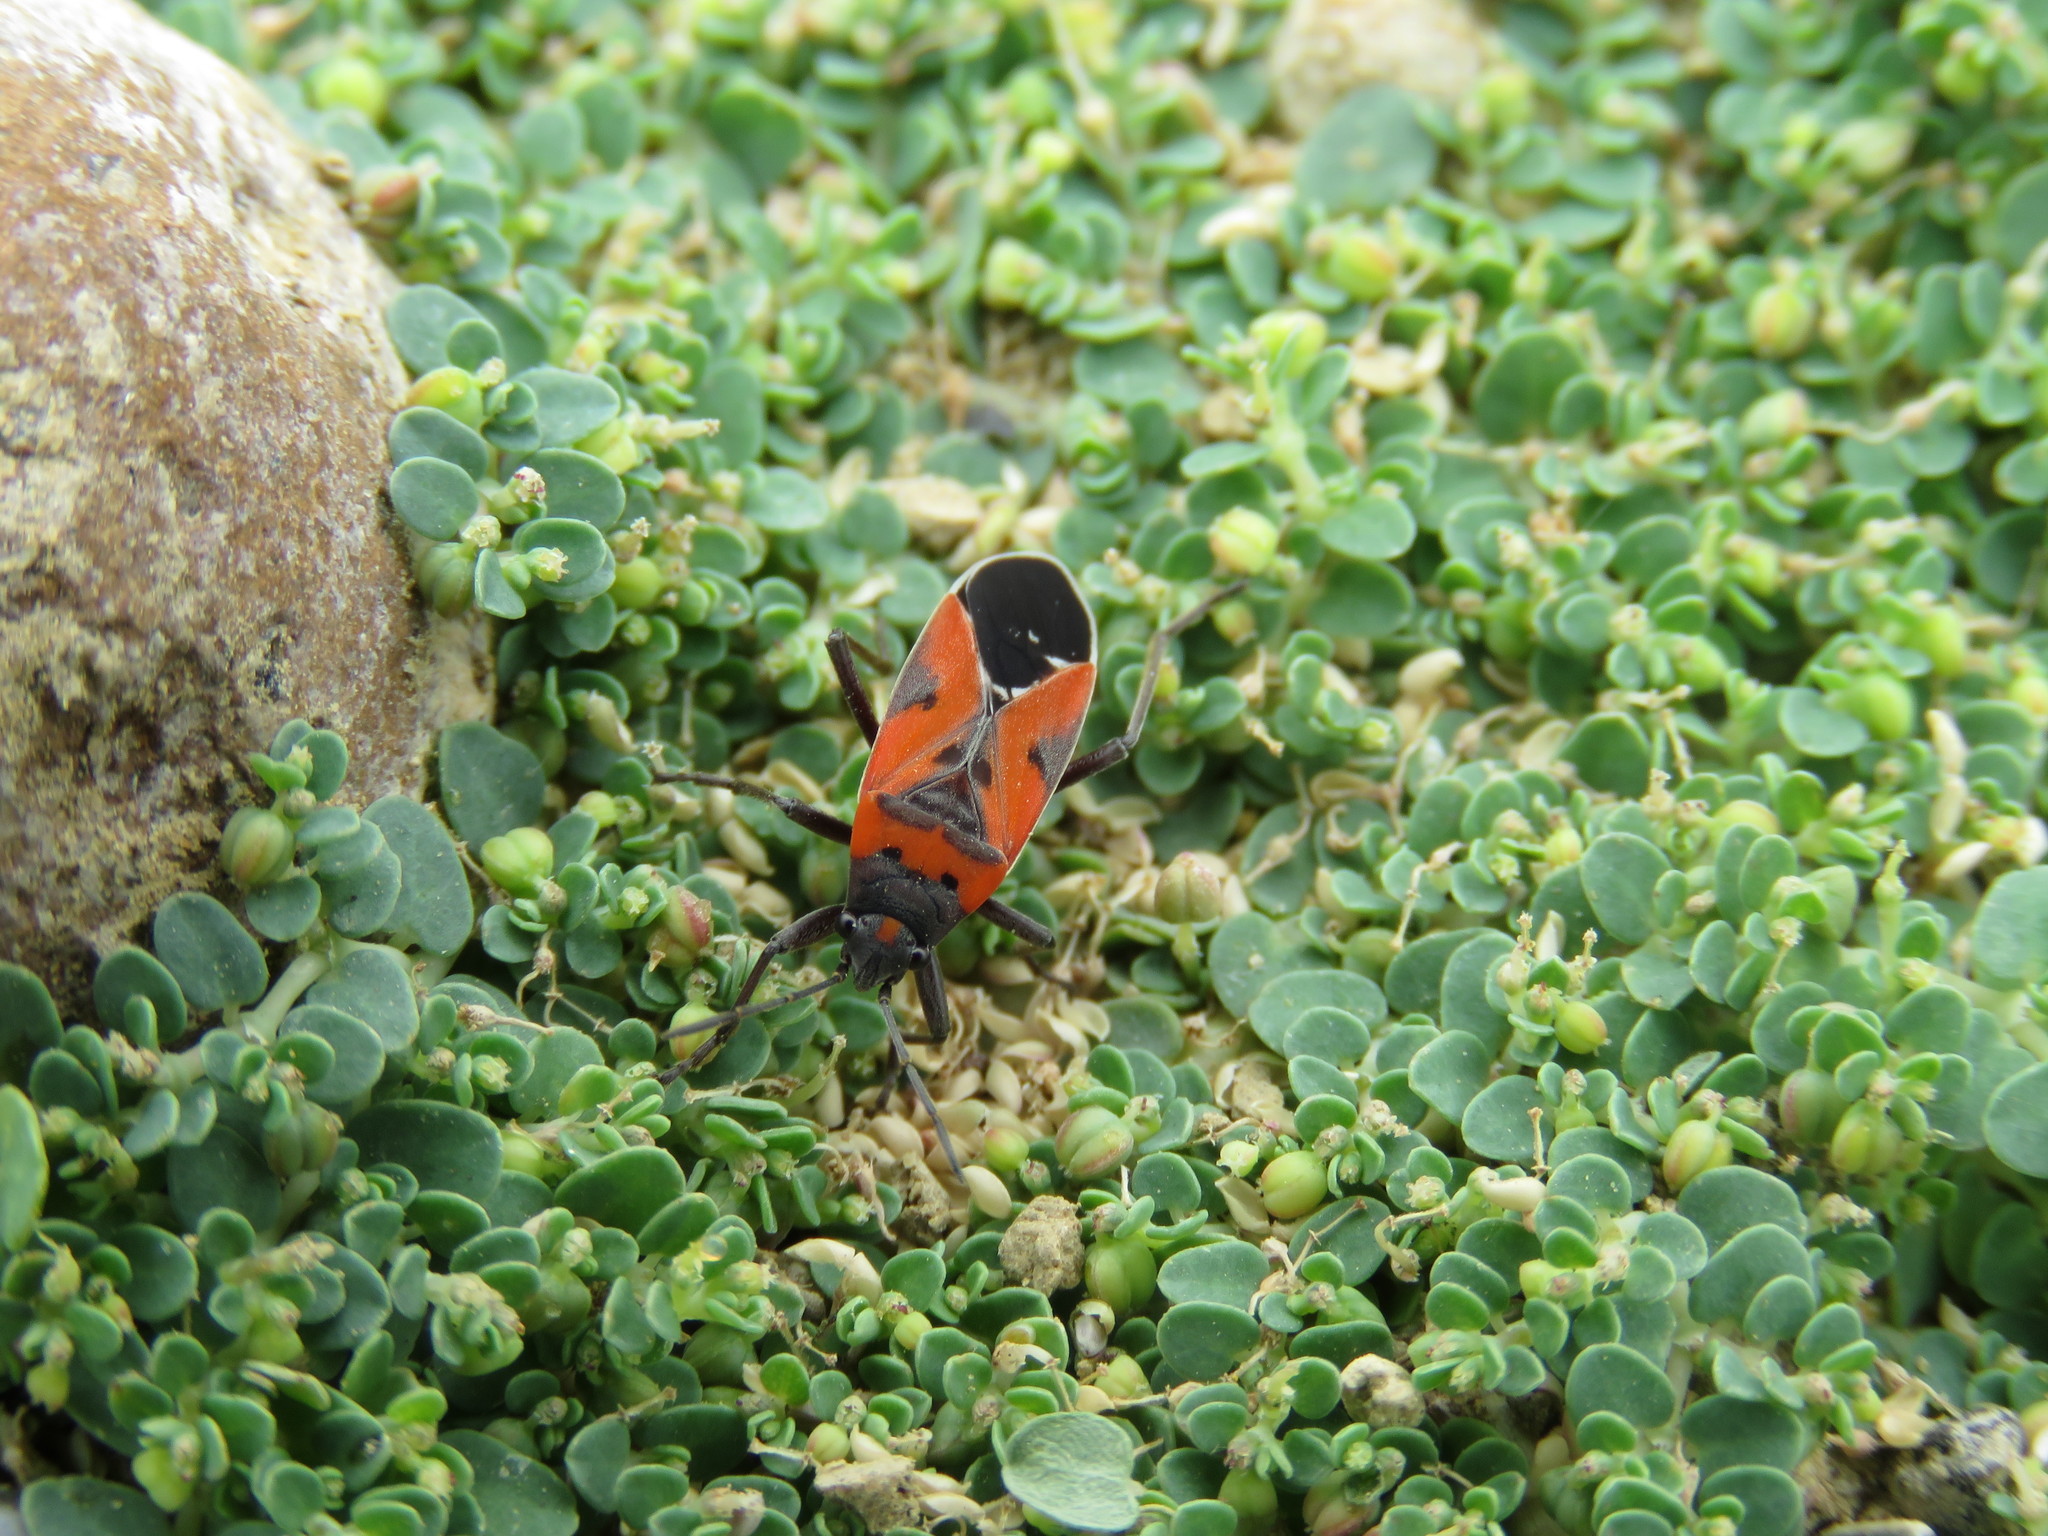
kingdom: Animalia
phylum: Arthropoda
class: Insecta
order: Hemiptera
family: Lygaeidae
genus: Lygaeus
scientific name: Lygaeus reclivatus
